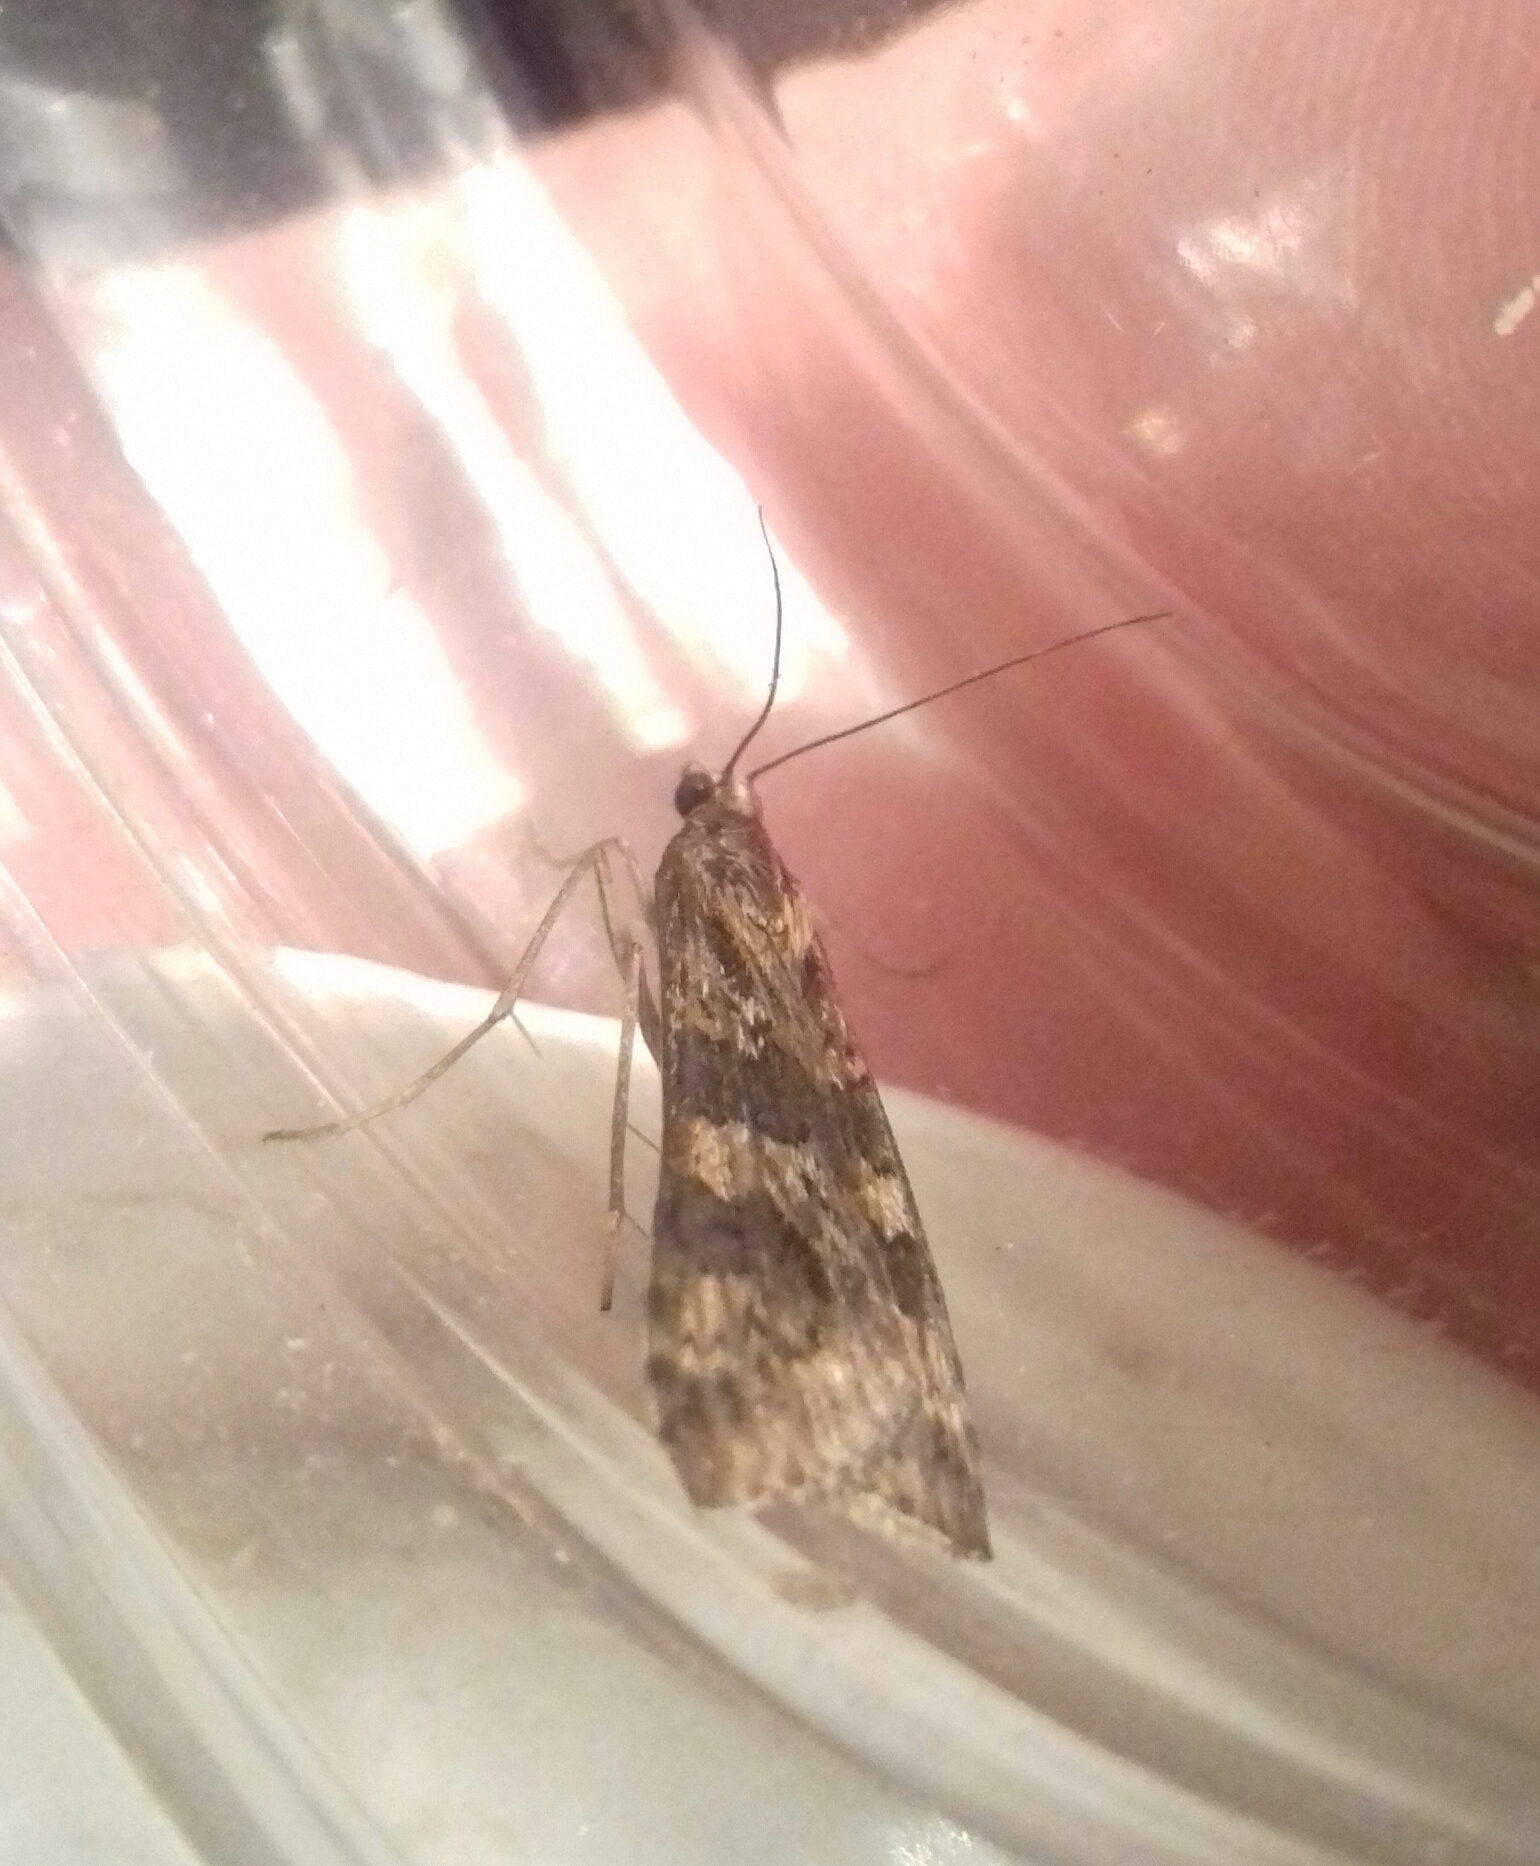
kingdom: Animalia
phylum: Arthropoda
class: Insecta
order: Lepidoptera
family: Crambidae
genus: Nomophila
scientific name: Nomophila noctuella
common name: Rush veneer
